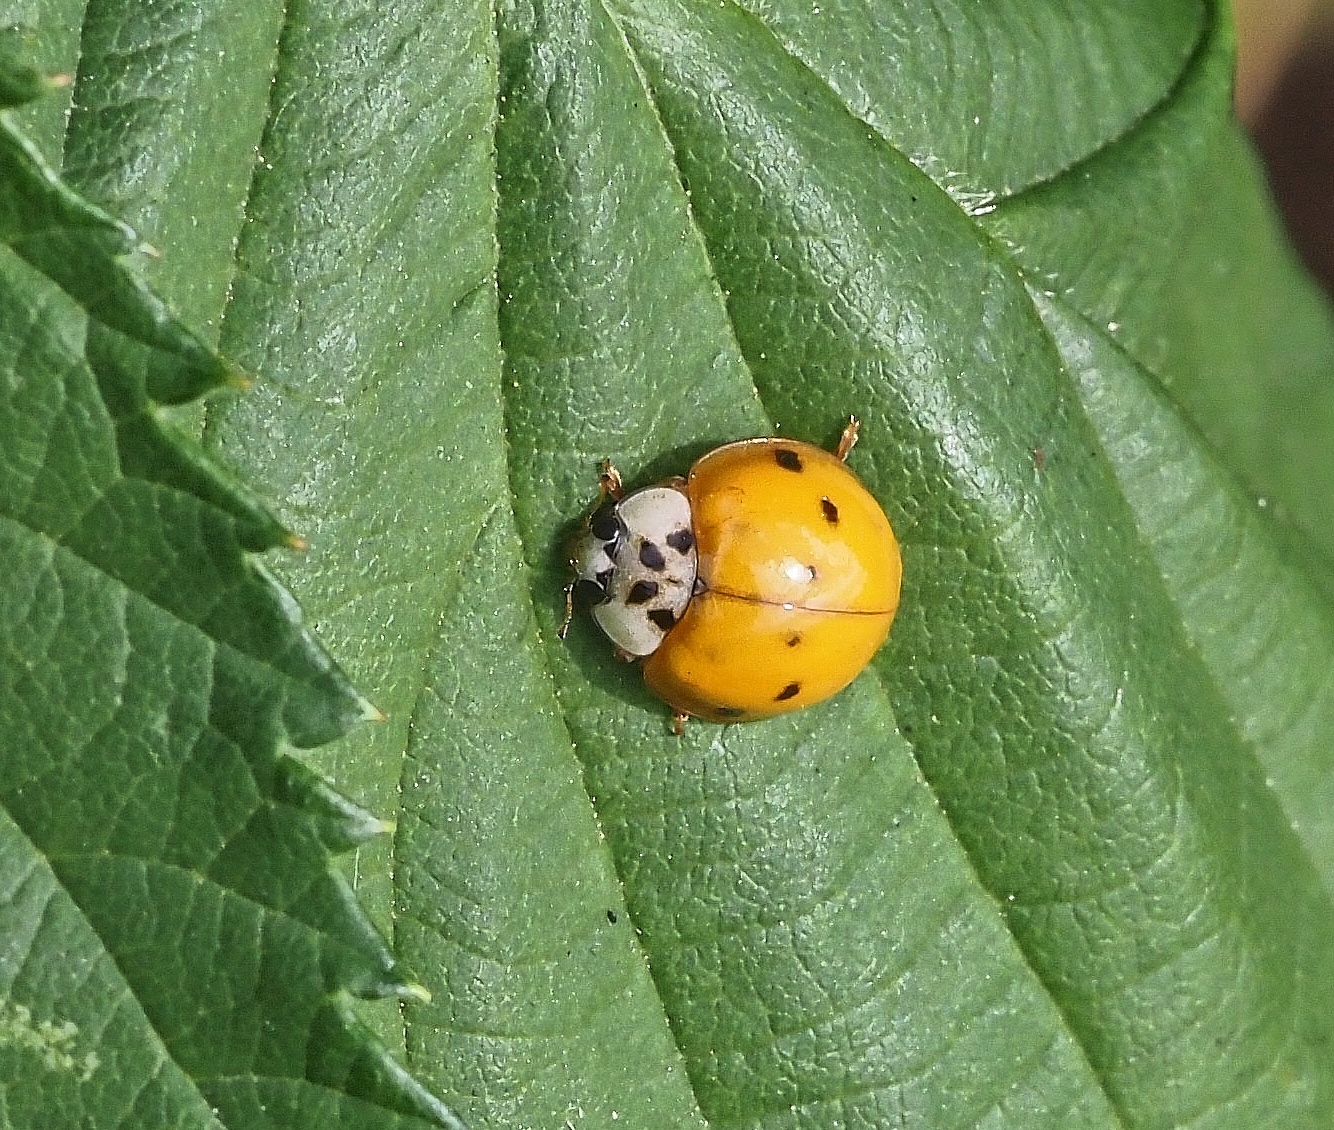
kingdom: Animalia
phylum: Arthropoda
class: Insecta
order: Coleoptera
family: Coccinellidae
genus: Harmonia
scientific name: Harmonia axyridis
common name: Harlequin ladybird
